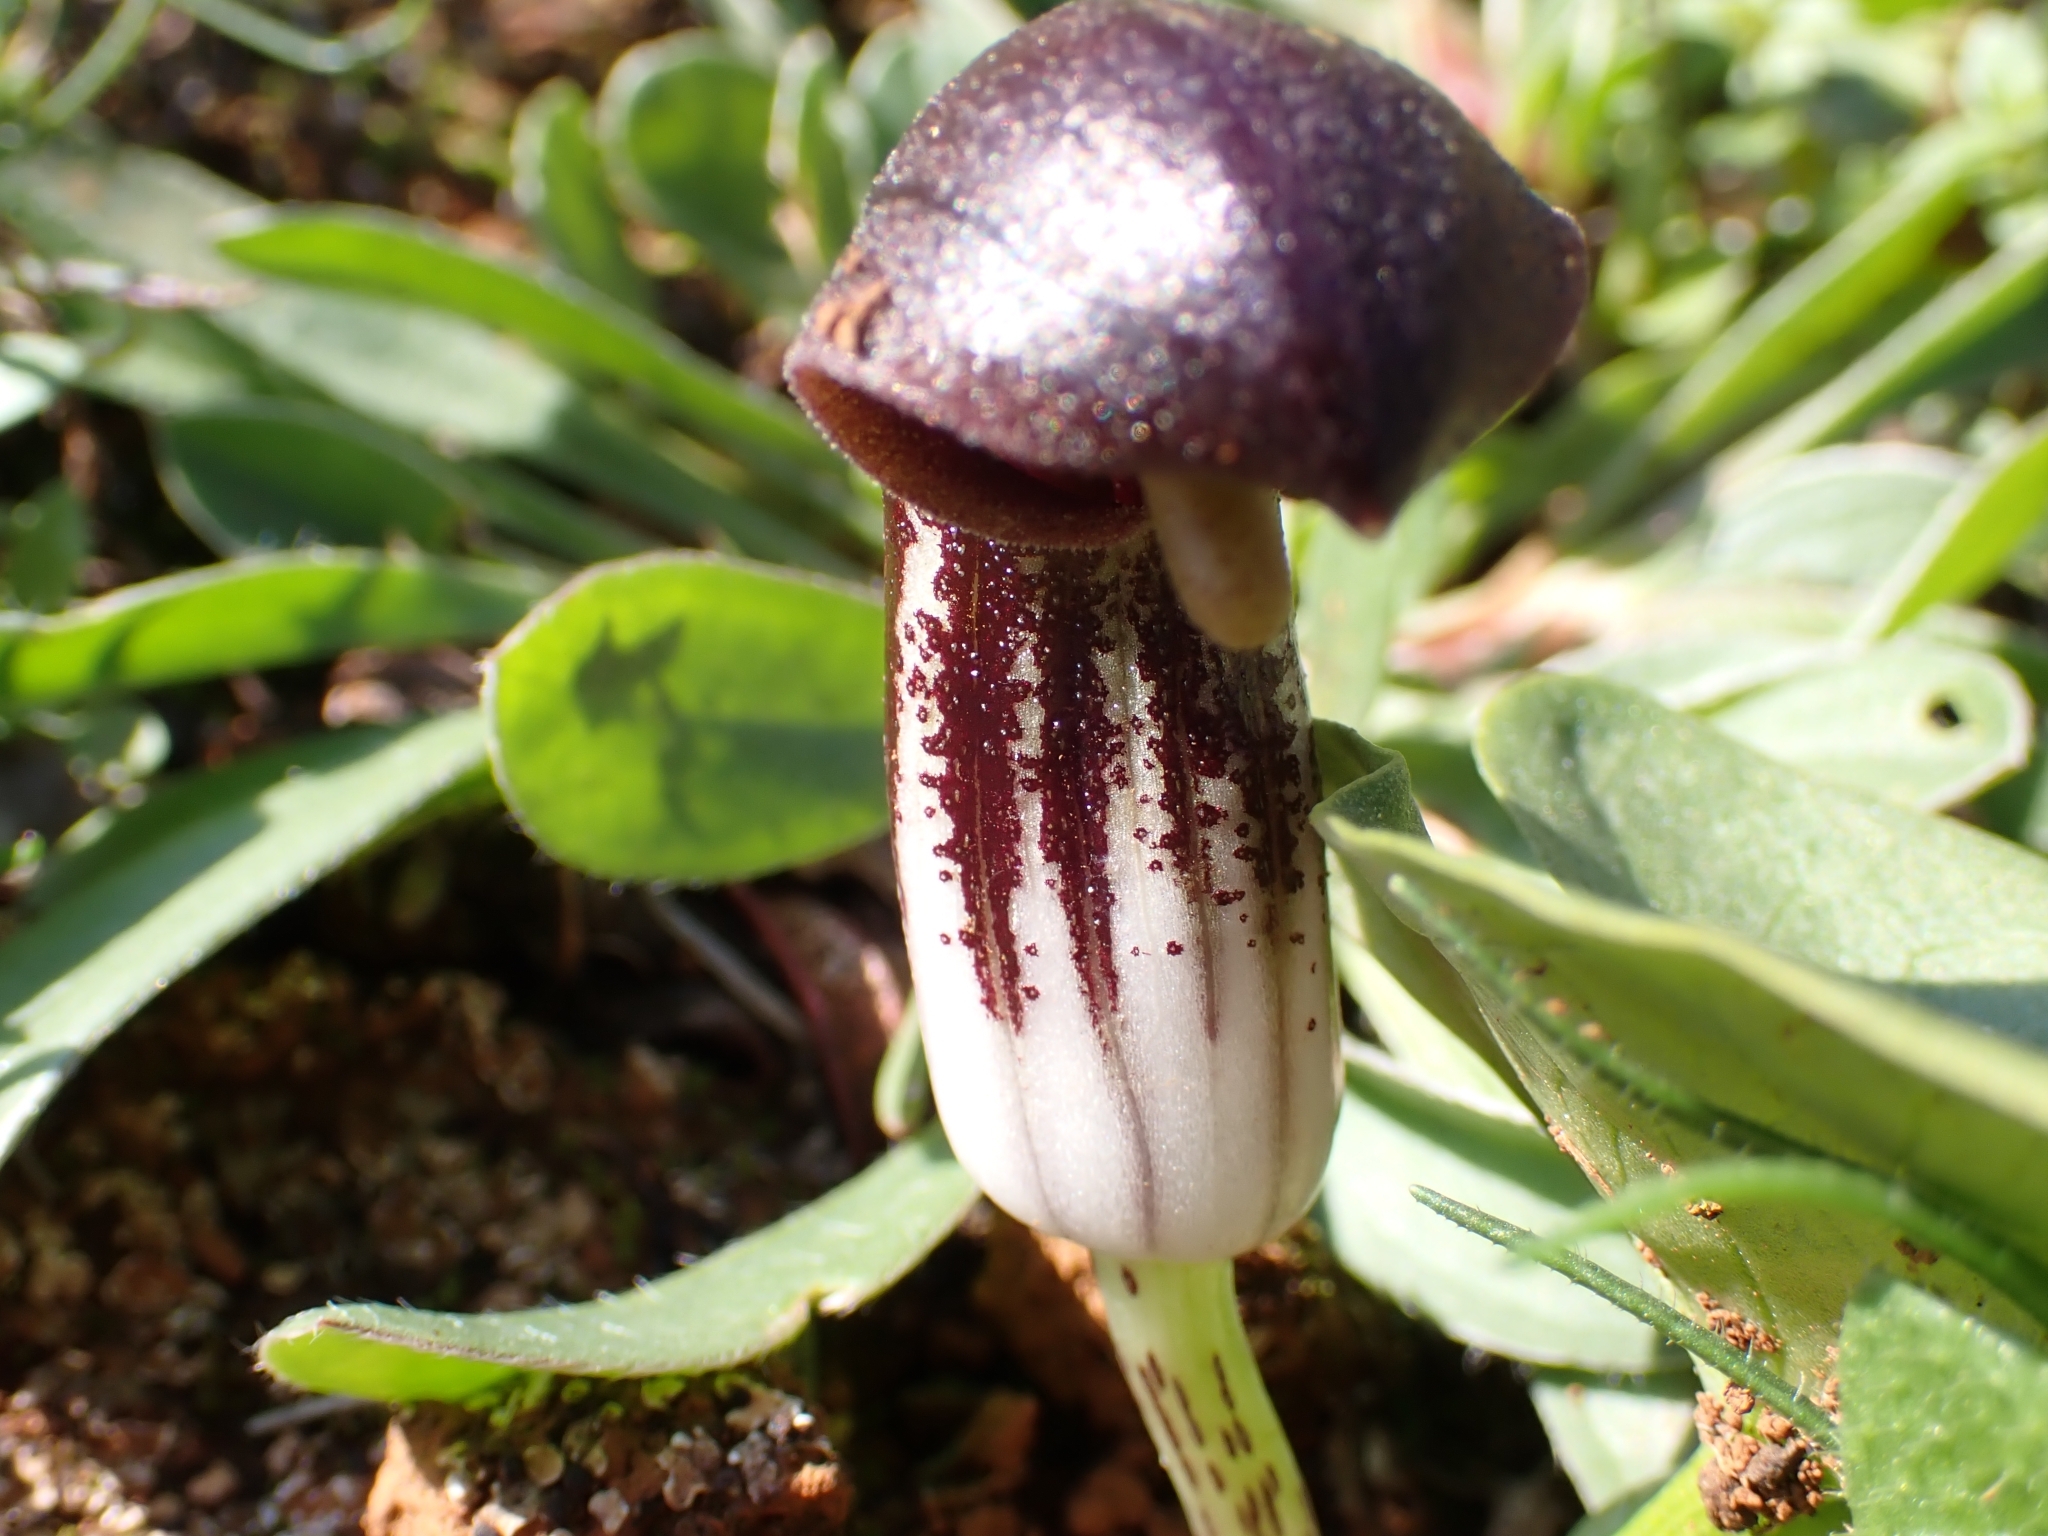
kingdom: Plantae
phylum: Tracheophyta
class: Liliopsida
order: Alismatales
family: Araceae
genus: Arisarum
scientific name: Arisarum simorrhinum
